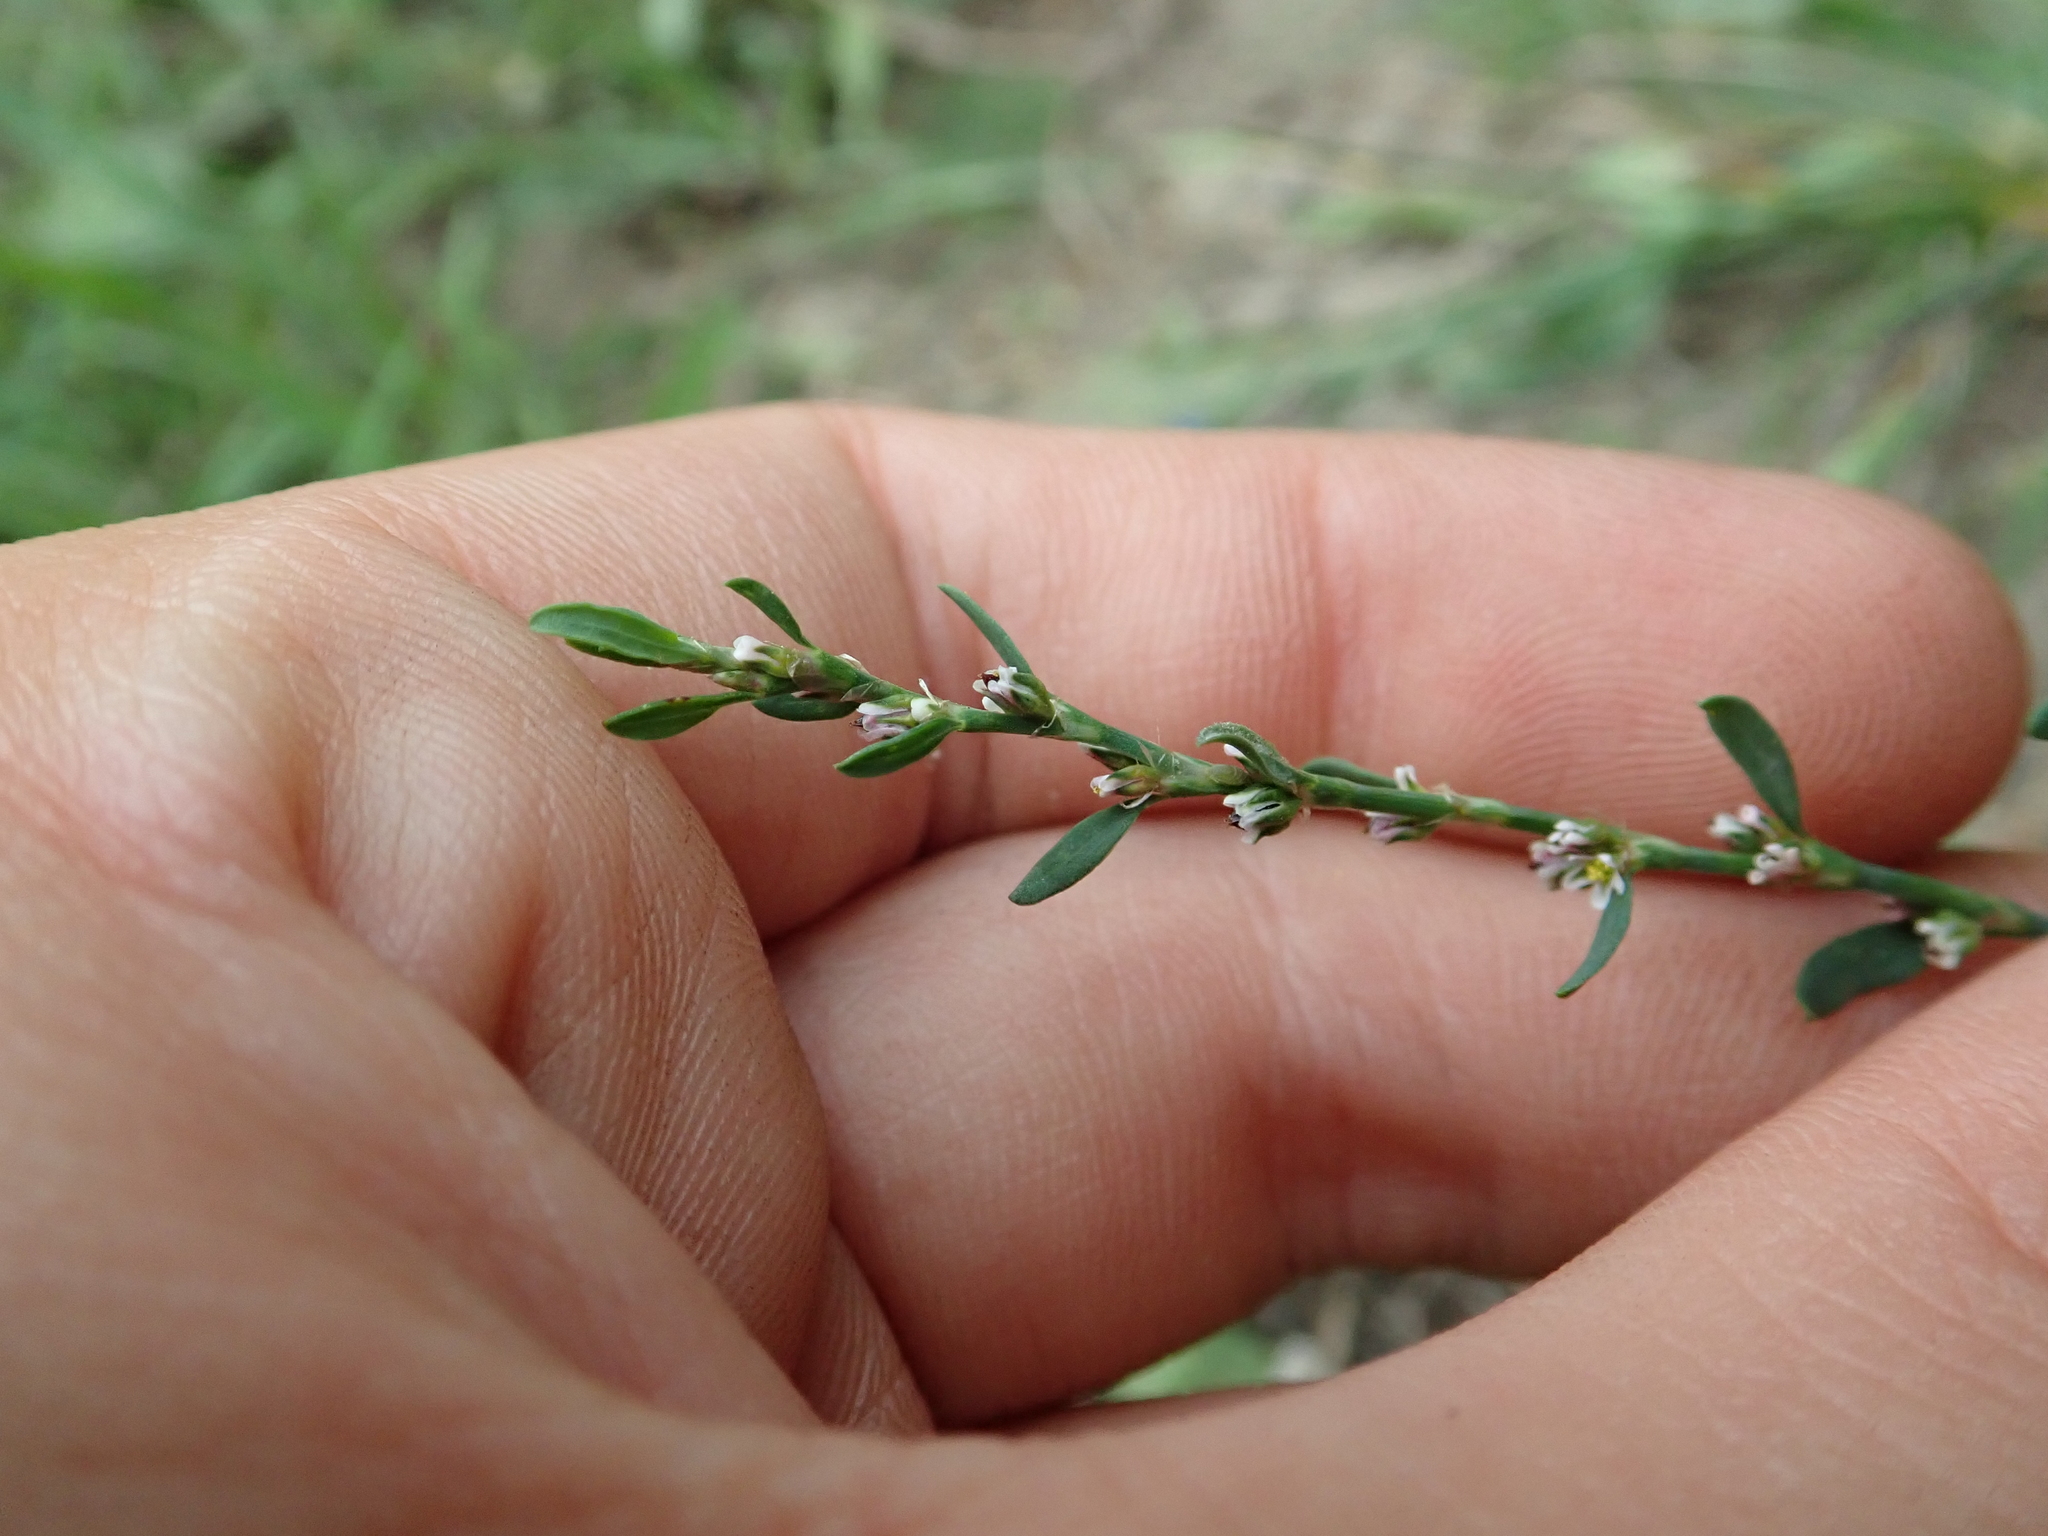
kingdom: Plantae
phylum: Tracheophyta
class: Magnoliopsida
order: Caryophyllales
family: Polygonaceae
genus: Polygonum
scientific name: Polygonum aviculare
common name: Prostrate knotweed
